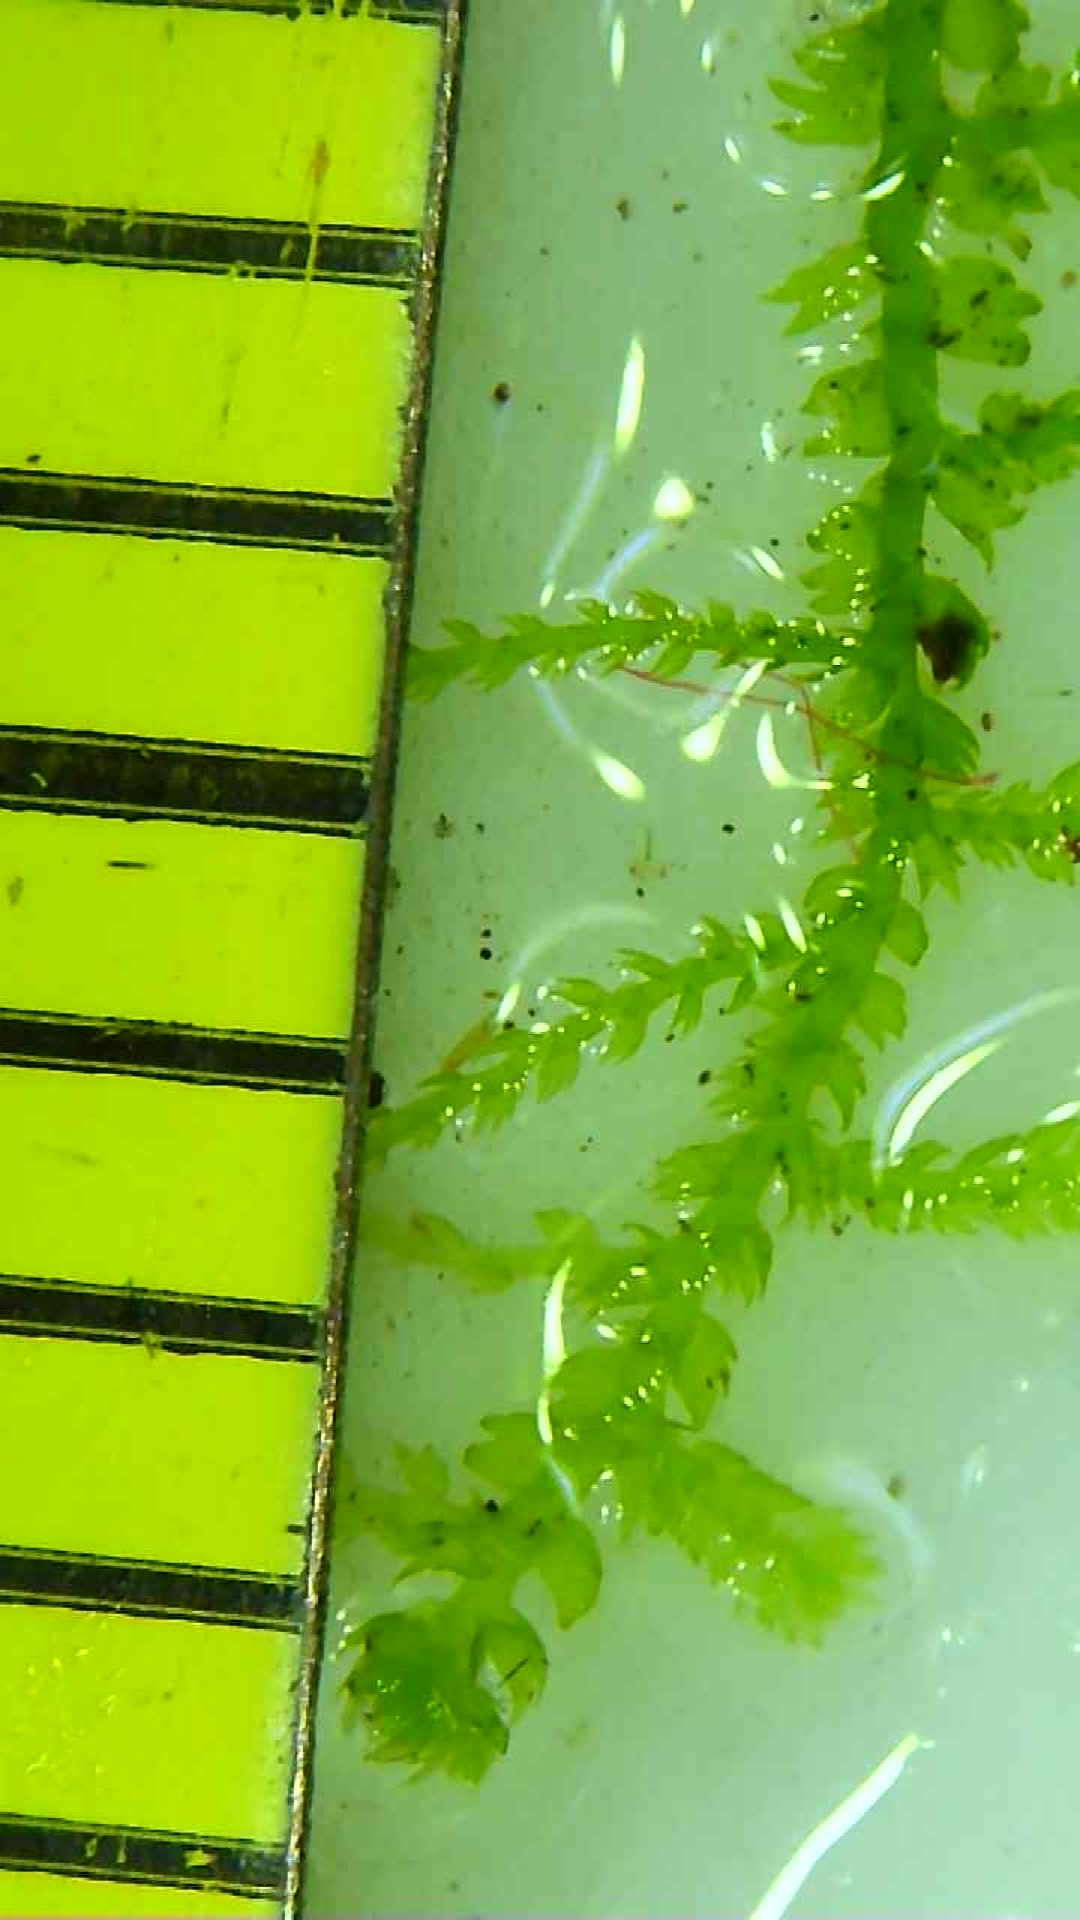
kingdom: Plantae
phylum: Marchantiophyta
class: Jungermanniopsida
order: Jungermanniales
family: Lepidoziaceae
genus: Lepidozia
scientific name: Lepidozia reptans
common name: Creeping fingerwort
